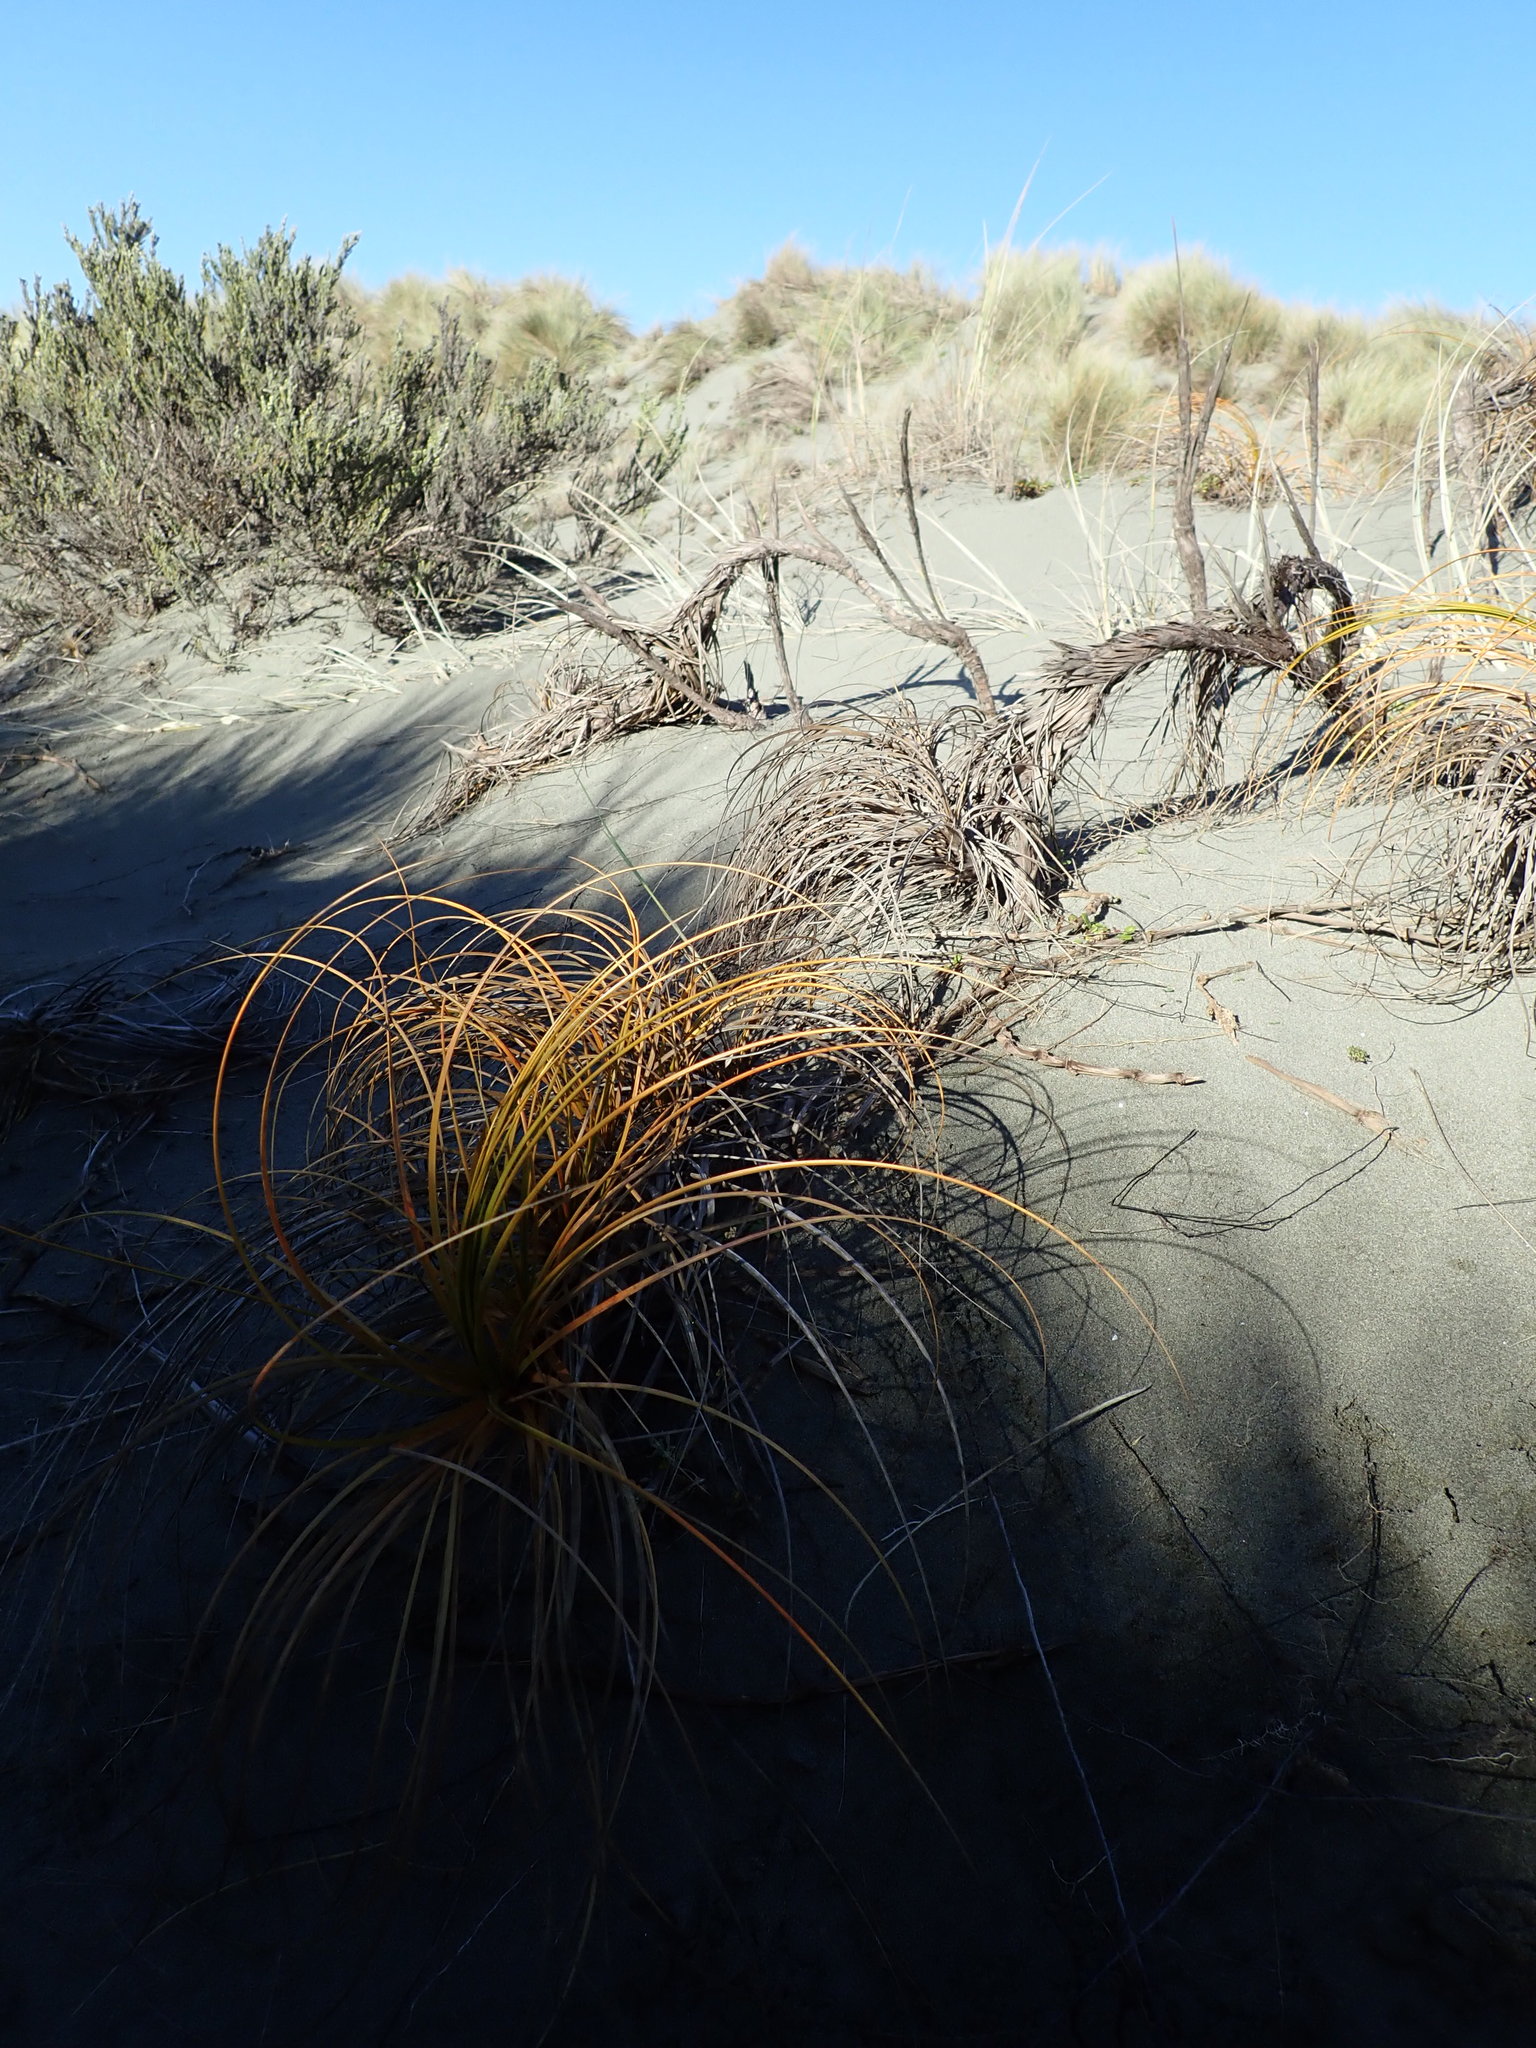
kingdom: Plantae
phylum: Tracheophyta
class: Liliopsida
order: Poales
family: Cyperaceae
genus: Ficinia
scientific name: Ficinia spiralis
